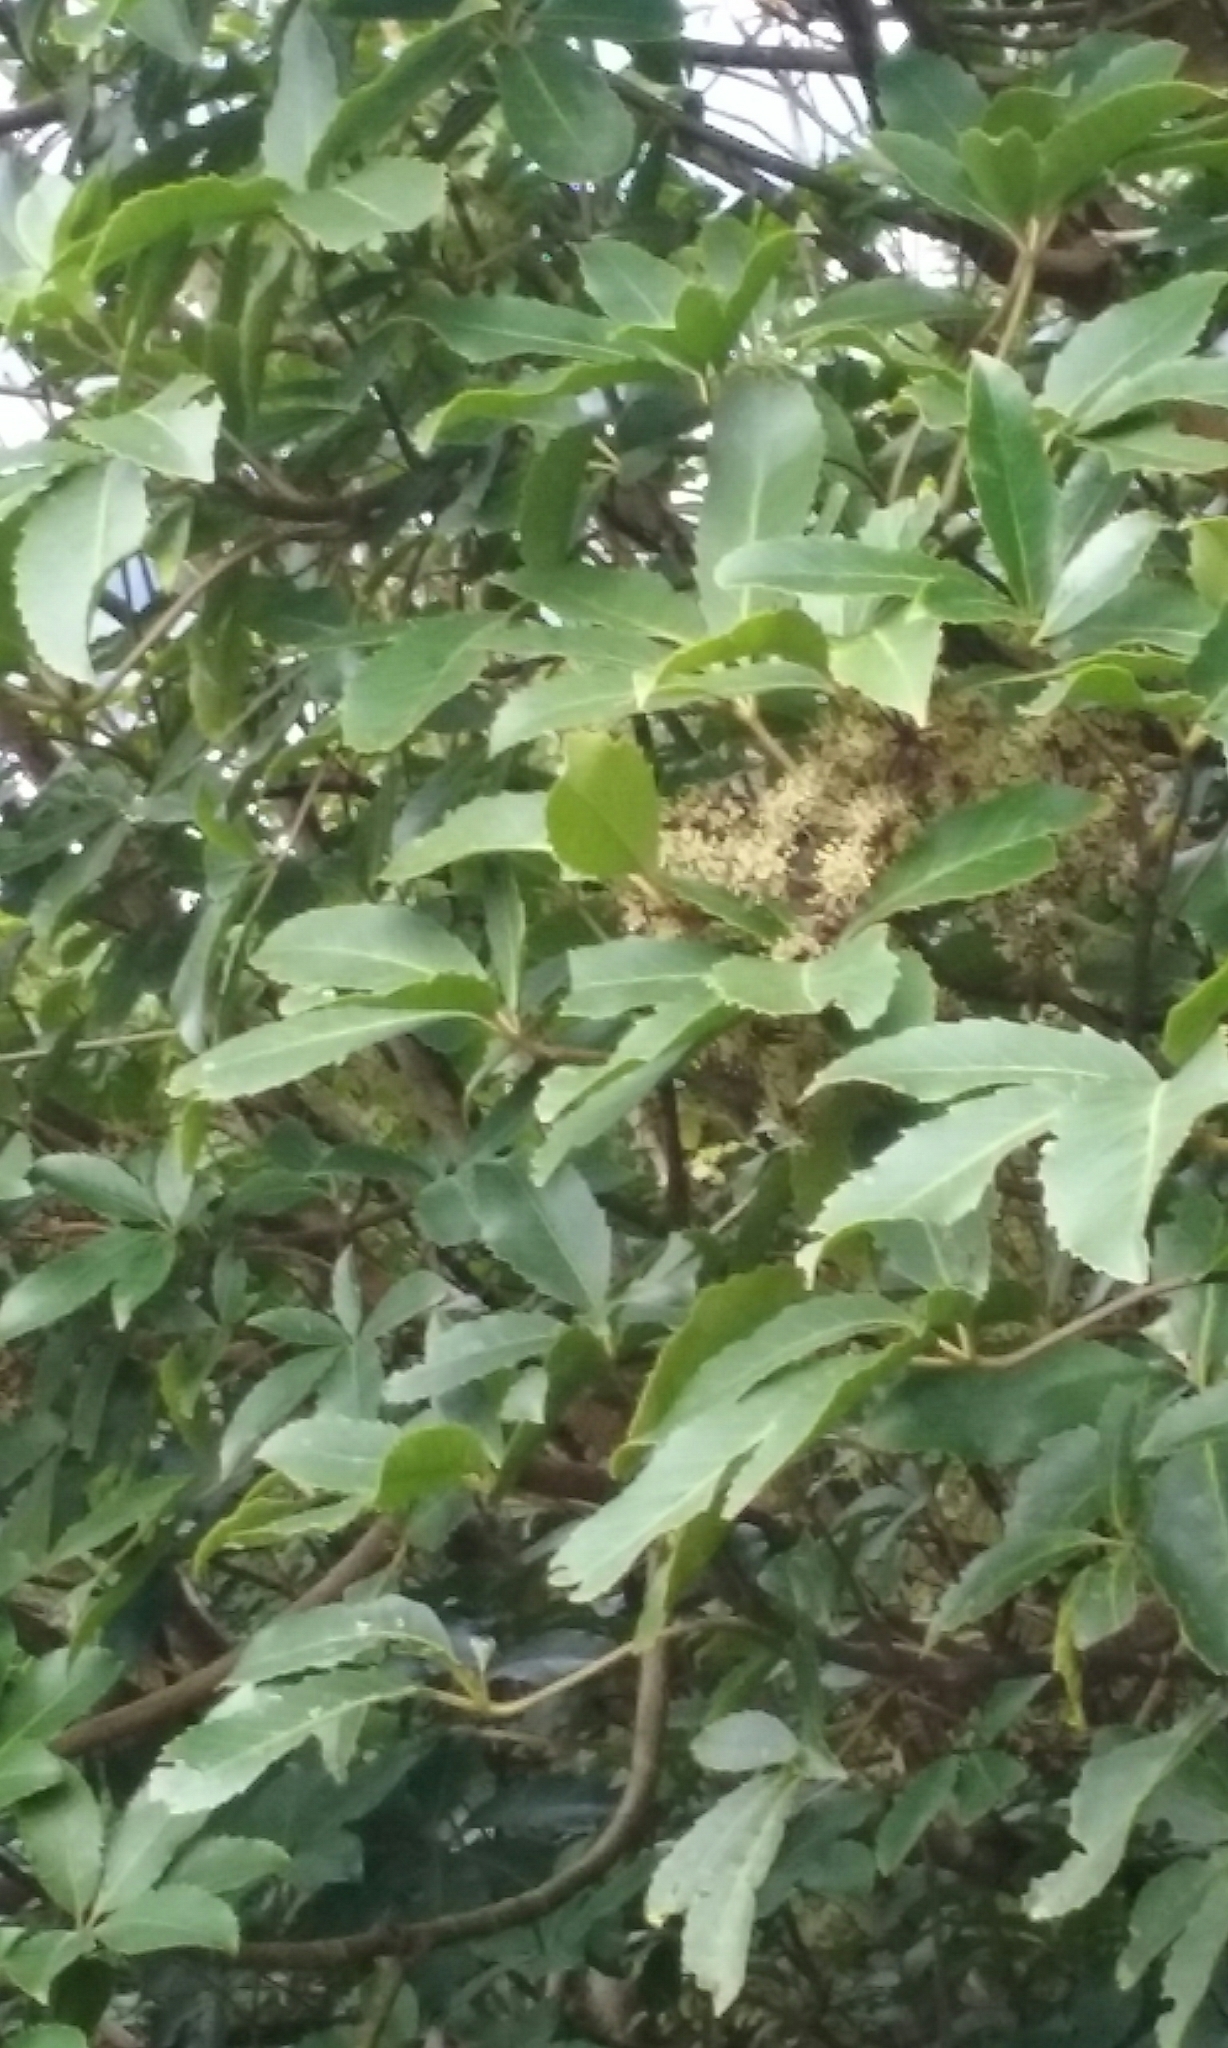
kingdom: Plantae
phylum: Tracheophyta
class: Magnoliopsida
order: Apiales
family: Araliaceae
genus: Neopanax
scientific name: Neopanax arboreus
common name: Five-fingers
